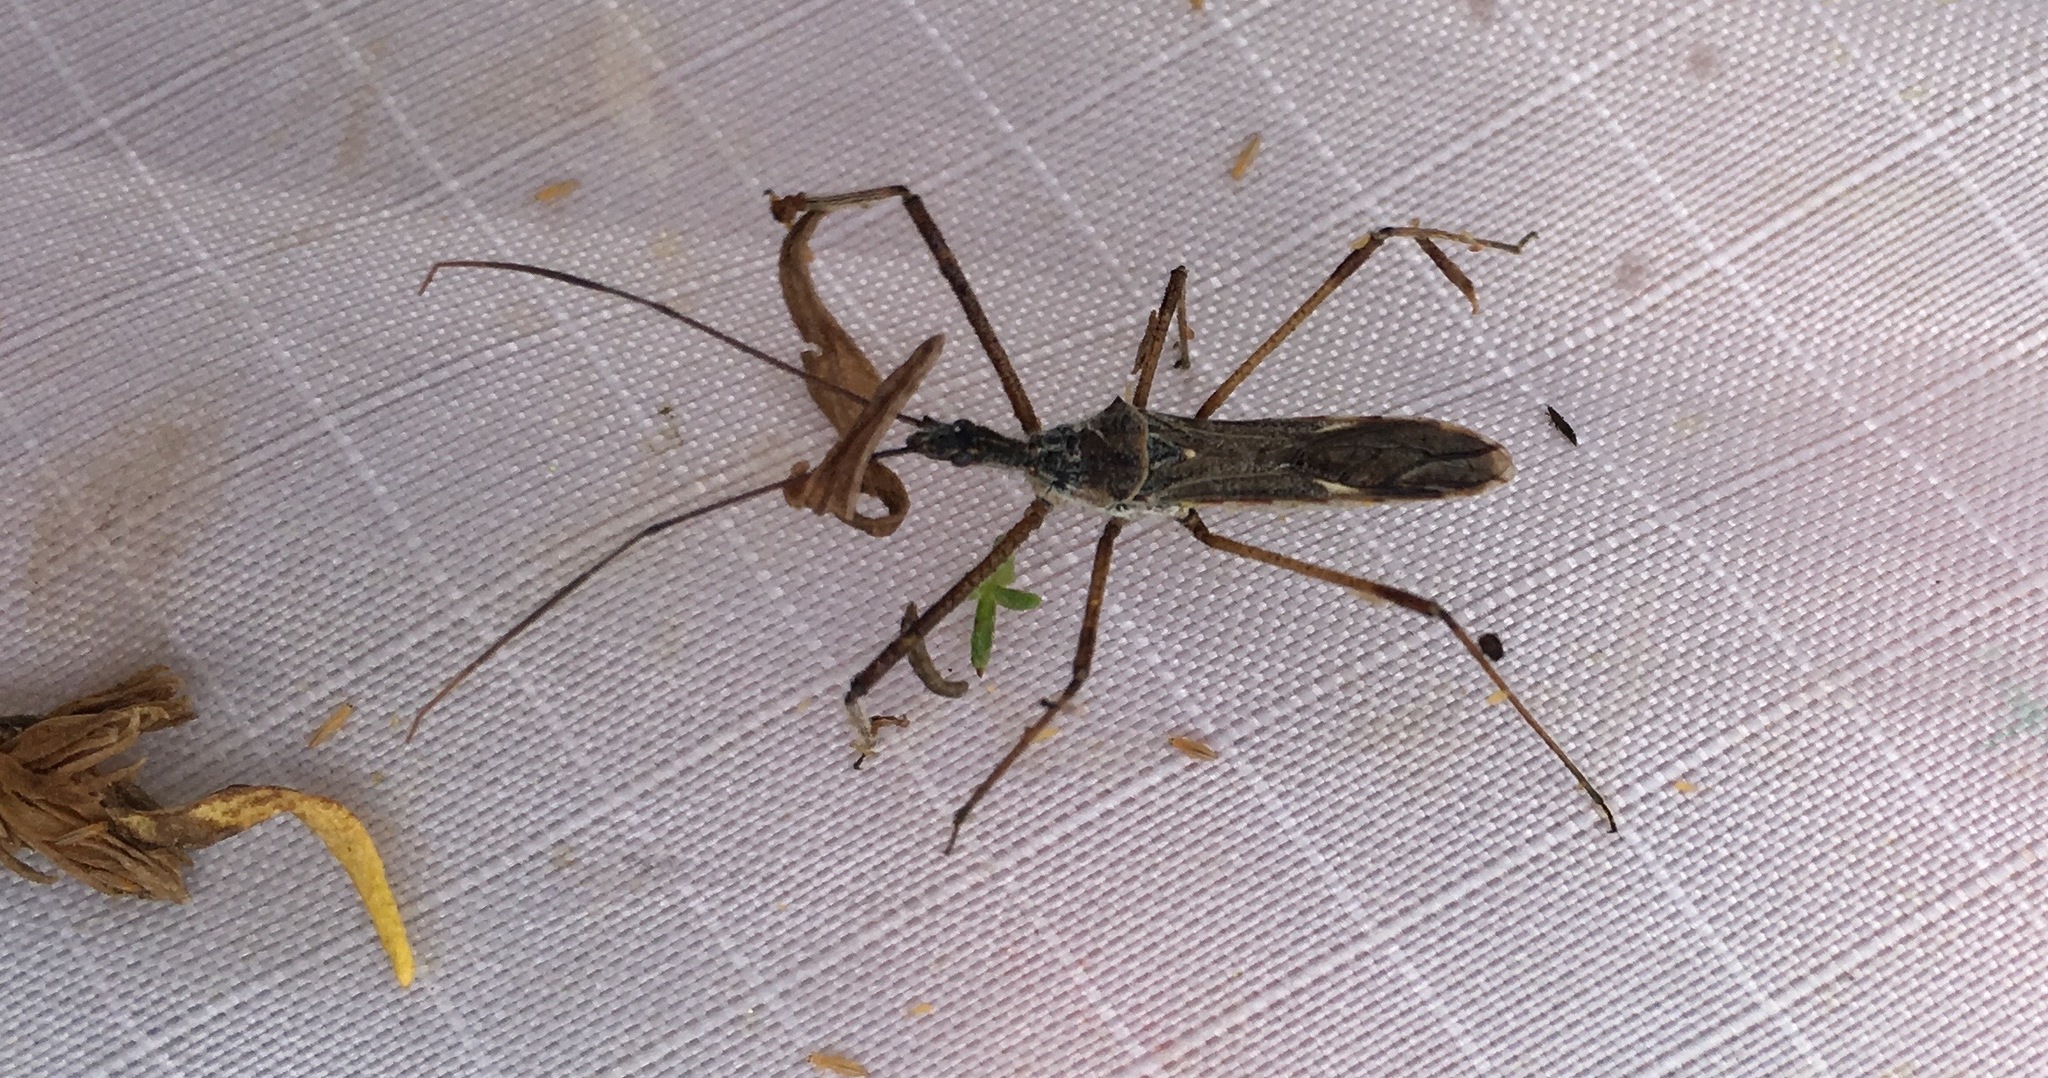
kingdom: Animalia
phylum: Arthropoda
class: Insecta
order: Hemiptera
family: Reduviidae
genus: Zelus
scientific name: Zelus tetracanthus
